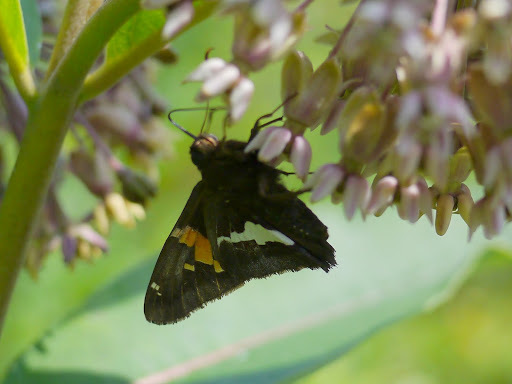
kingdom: Animalia
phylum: Arthropoda
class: Insecta
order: Lepidoptera
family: Hesperiidae
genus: Epargyreus
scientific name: Epargyreus clarus
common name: Silver-spotted skipper
